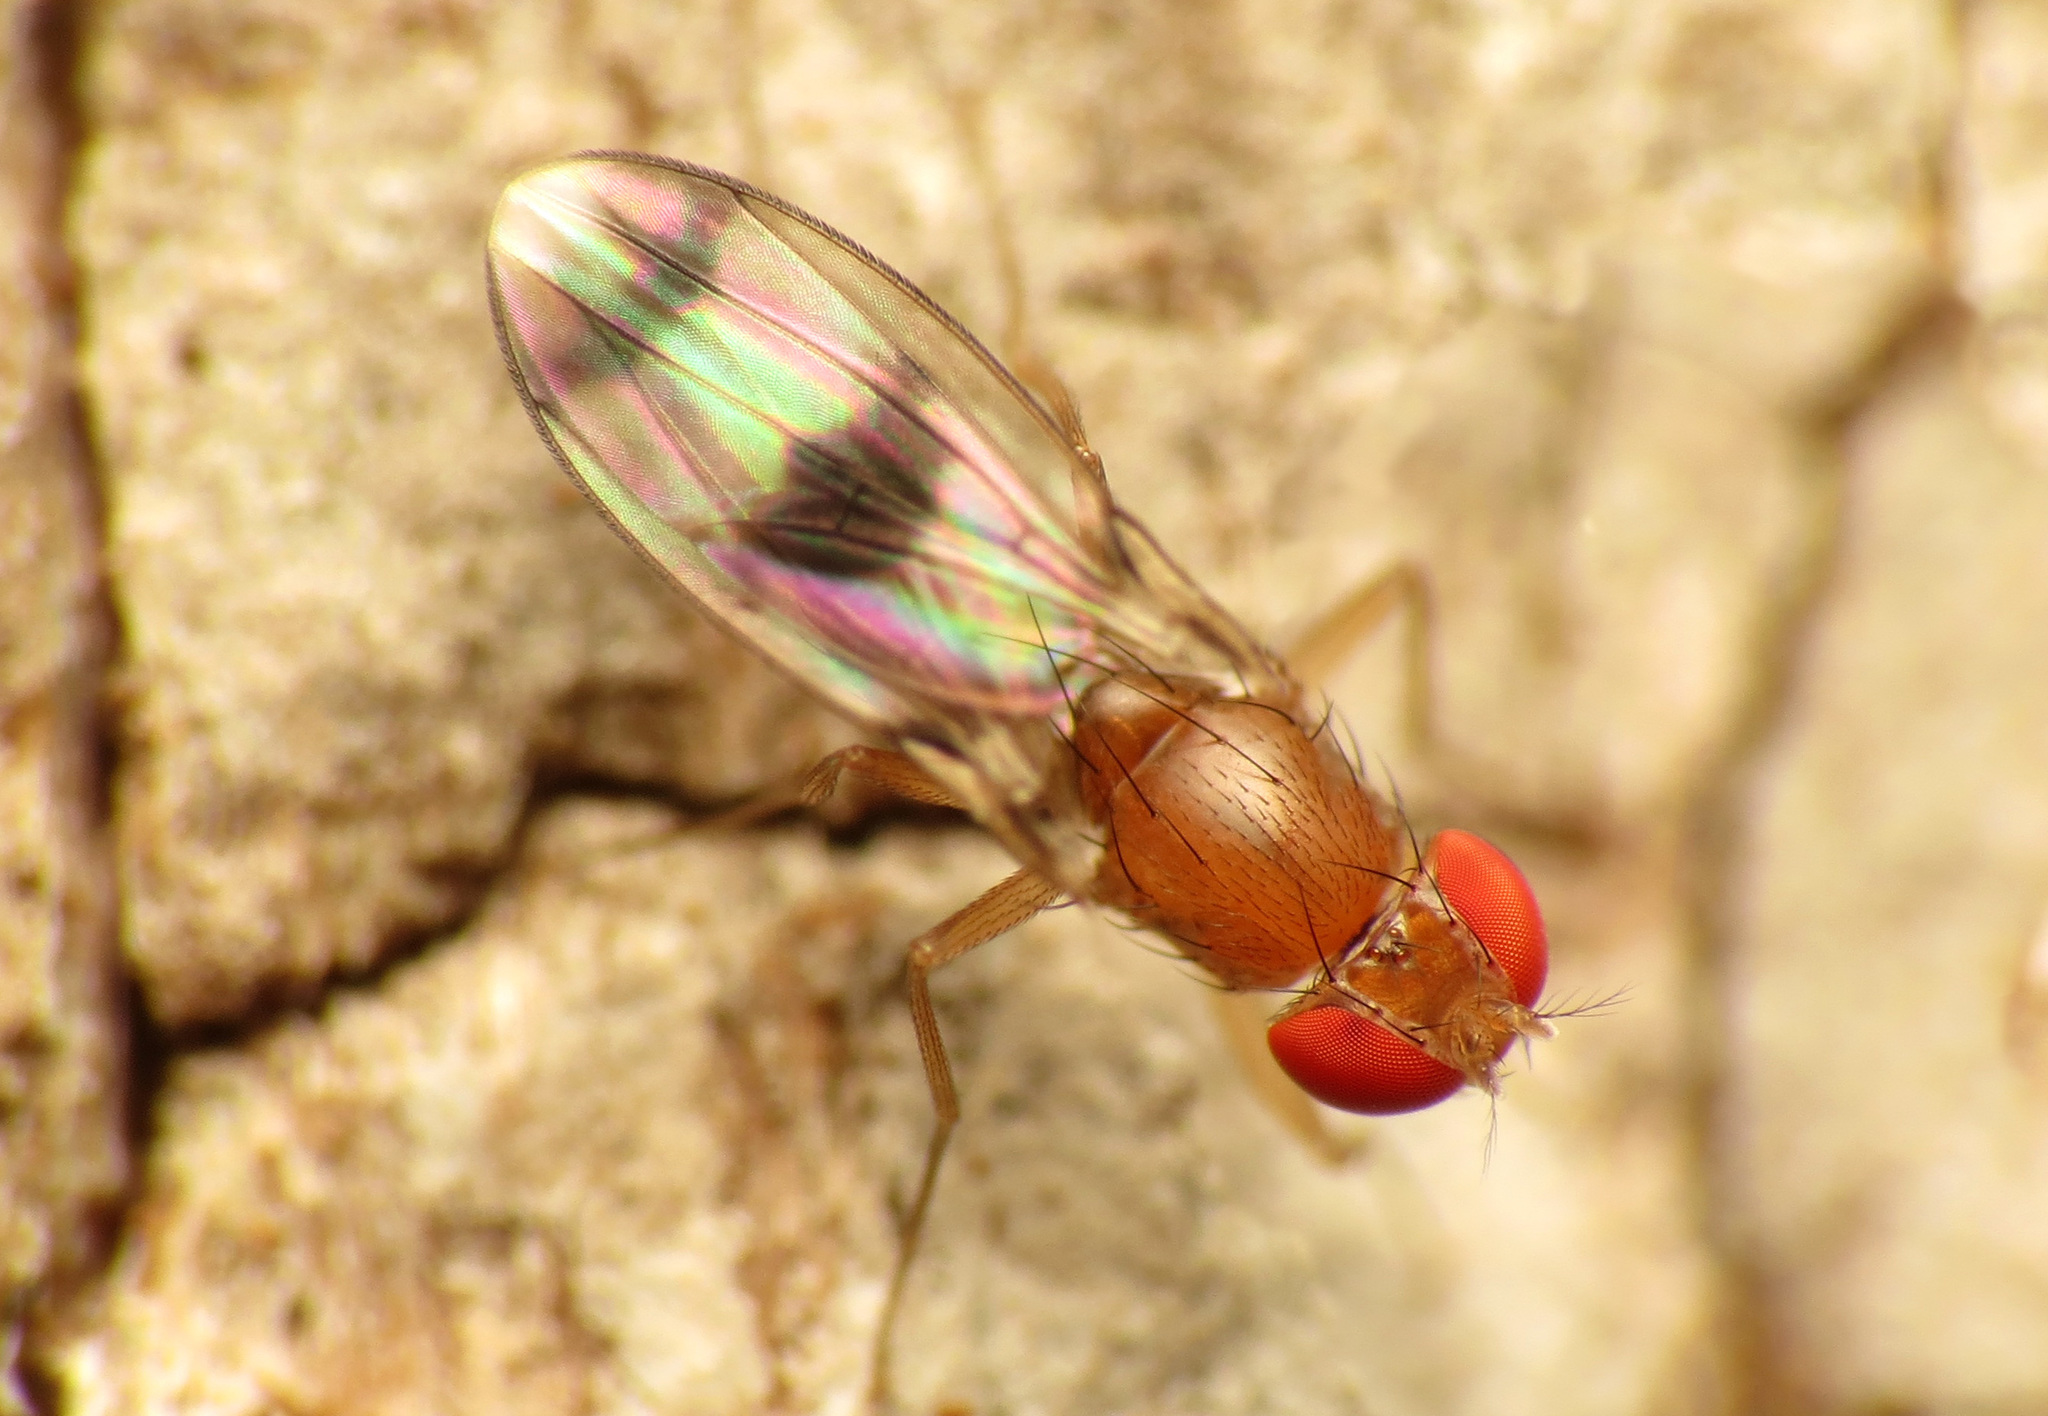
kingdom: Animalia
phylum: Arthropoda
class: Insecta
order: Diptera
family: Drosophilidae
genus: Chymomyza
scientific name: Chymomyza amoena
